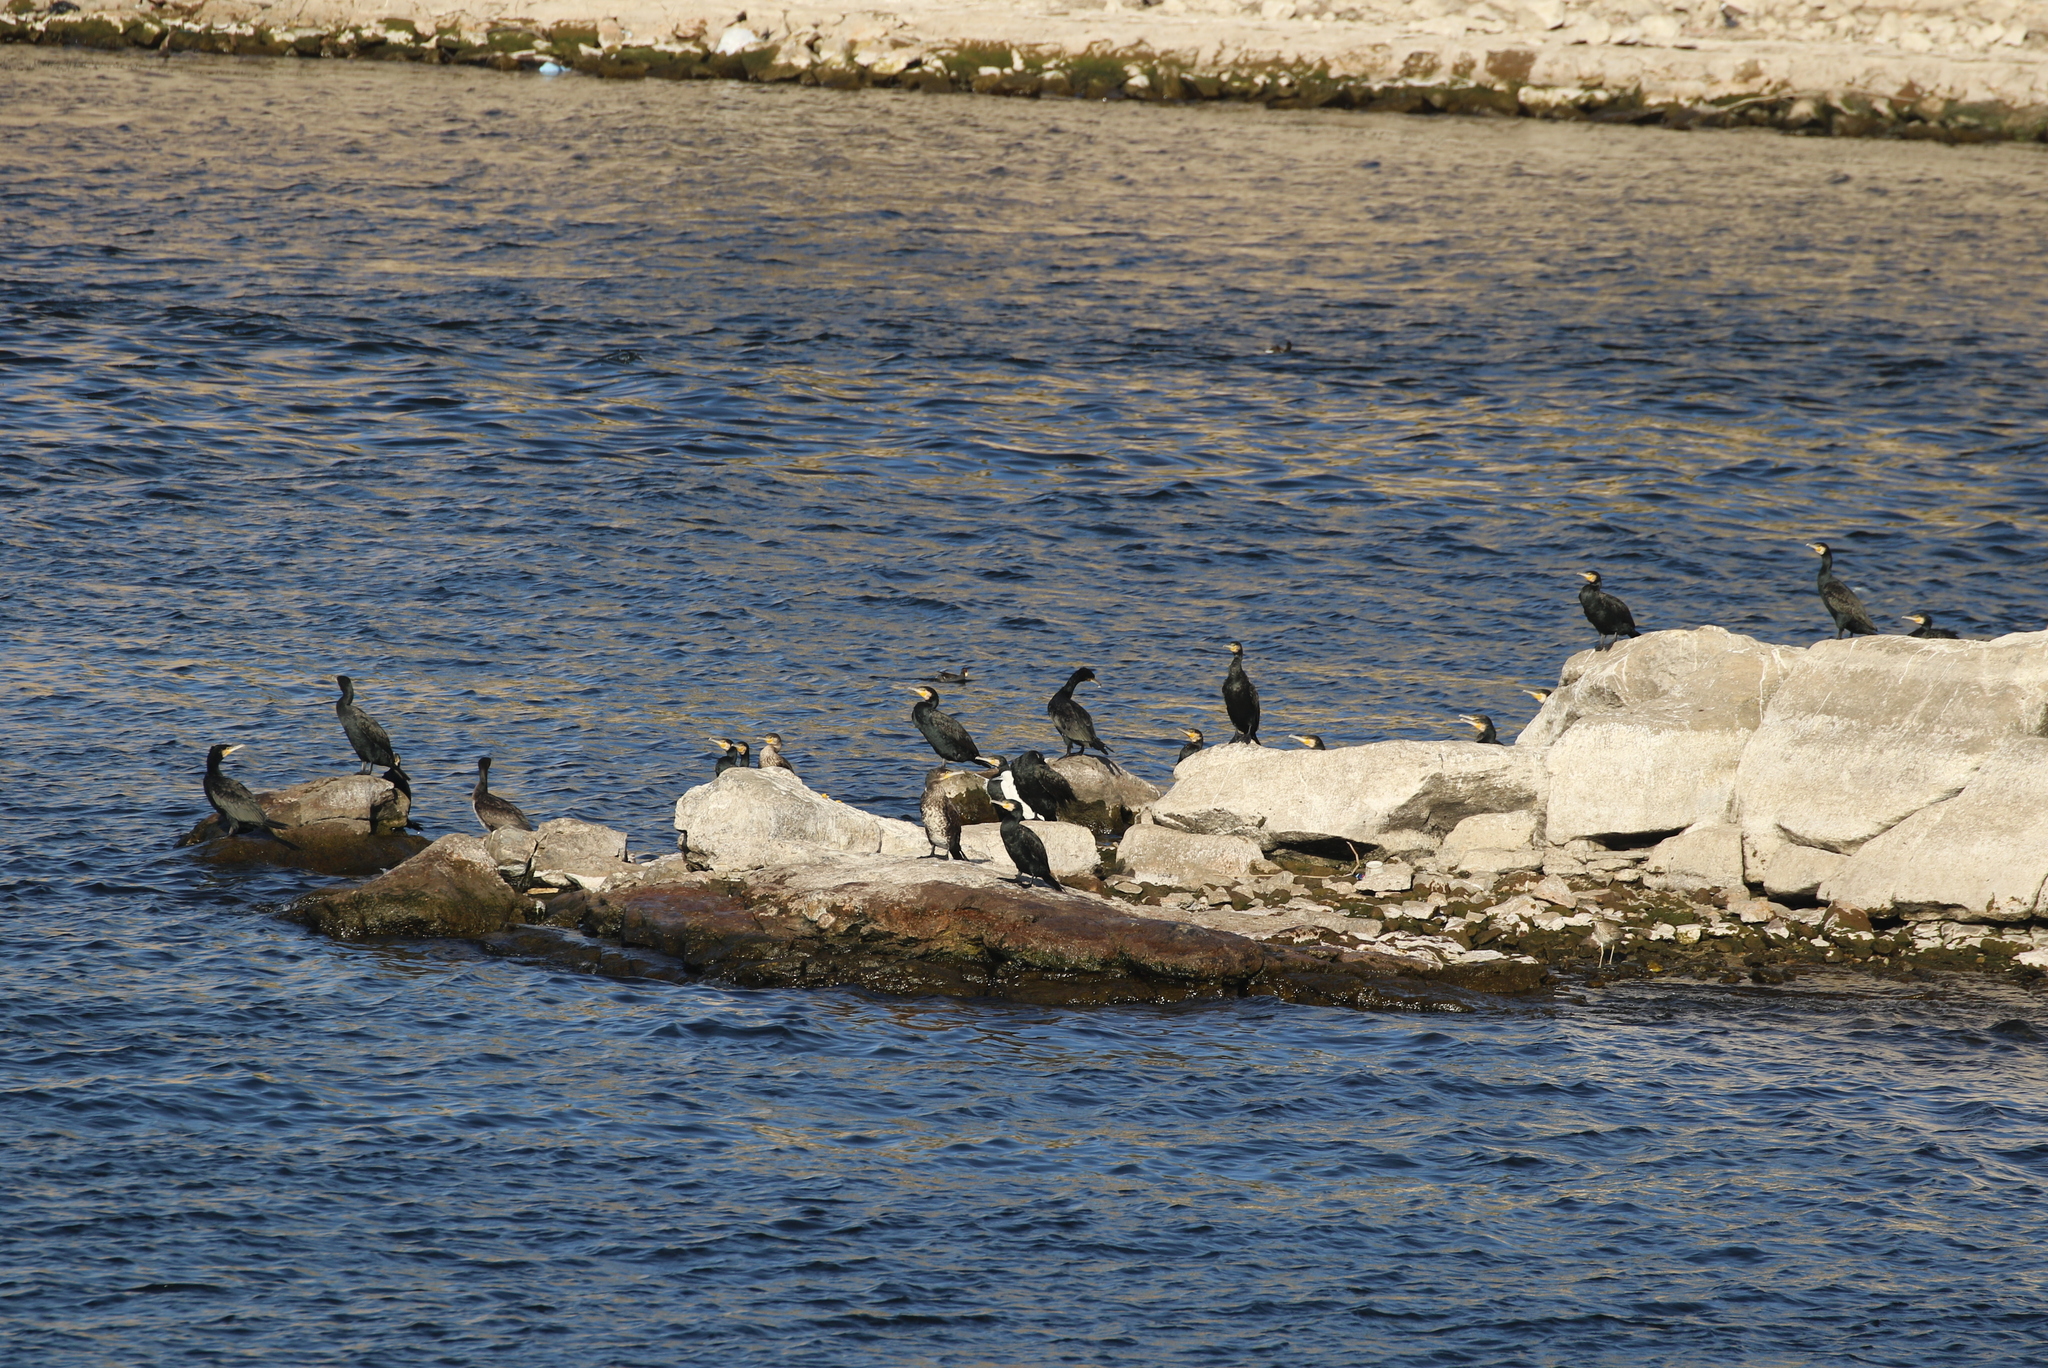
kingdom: Animalia
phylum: Chordata
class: Aves
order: Suliformes
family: Phalacrocoracidae
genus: Phalacrocorax
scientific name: Phalacrocorax carbo
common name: Great cormorant
